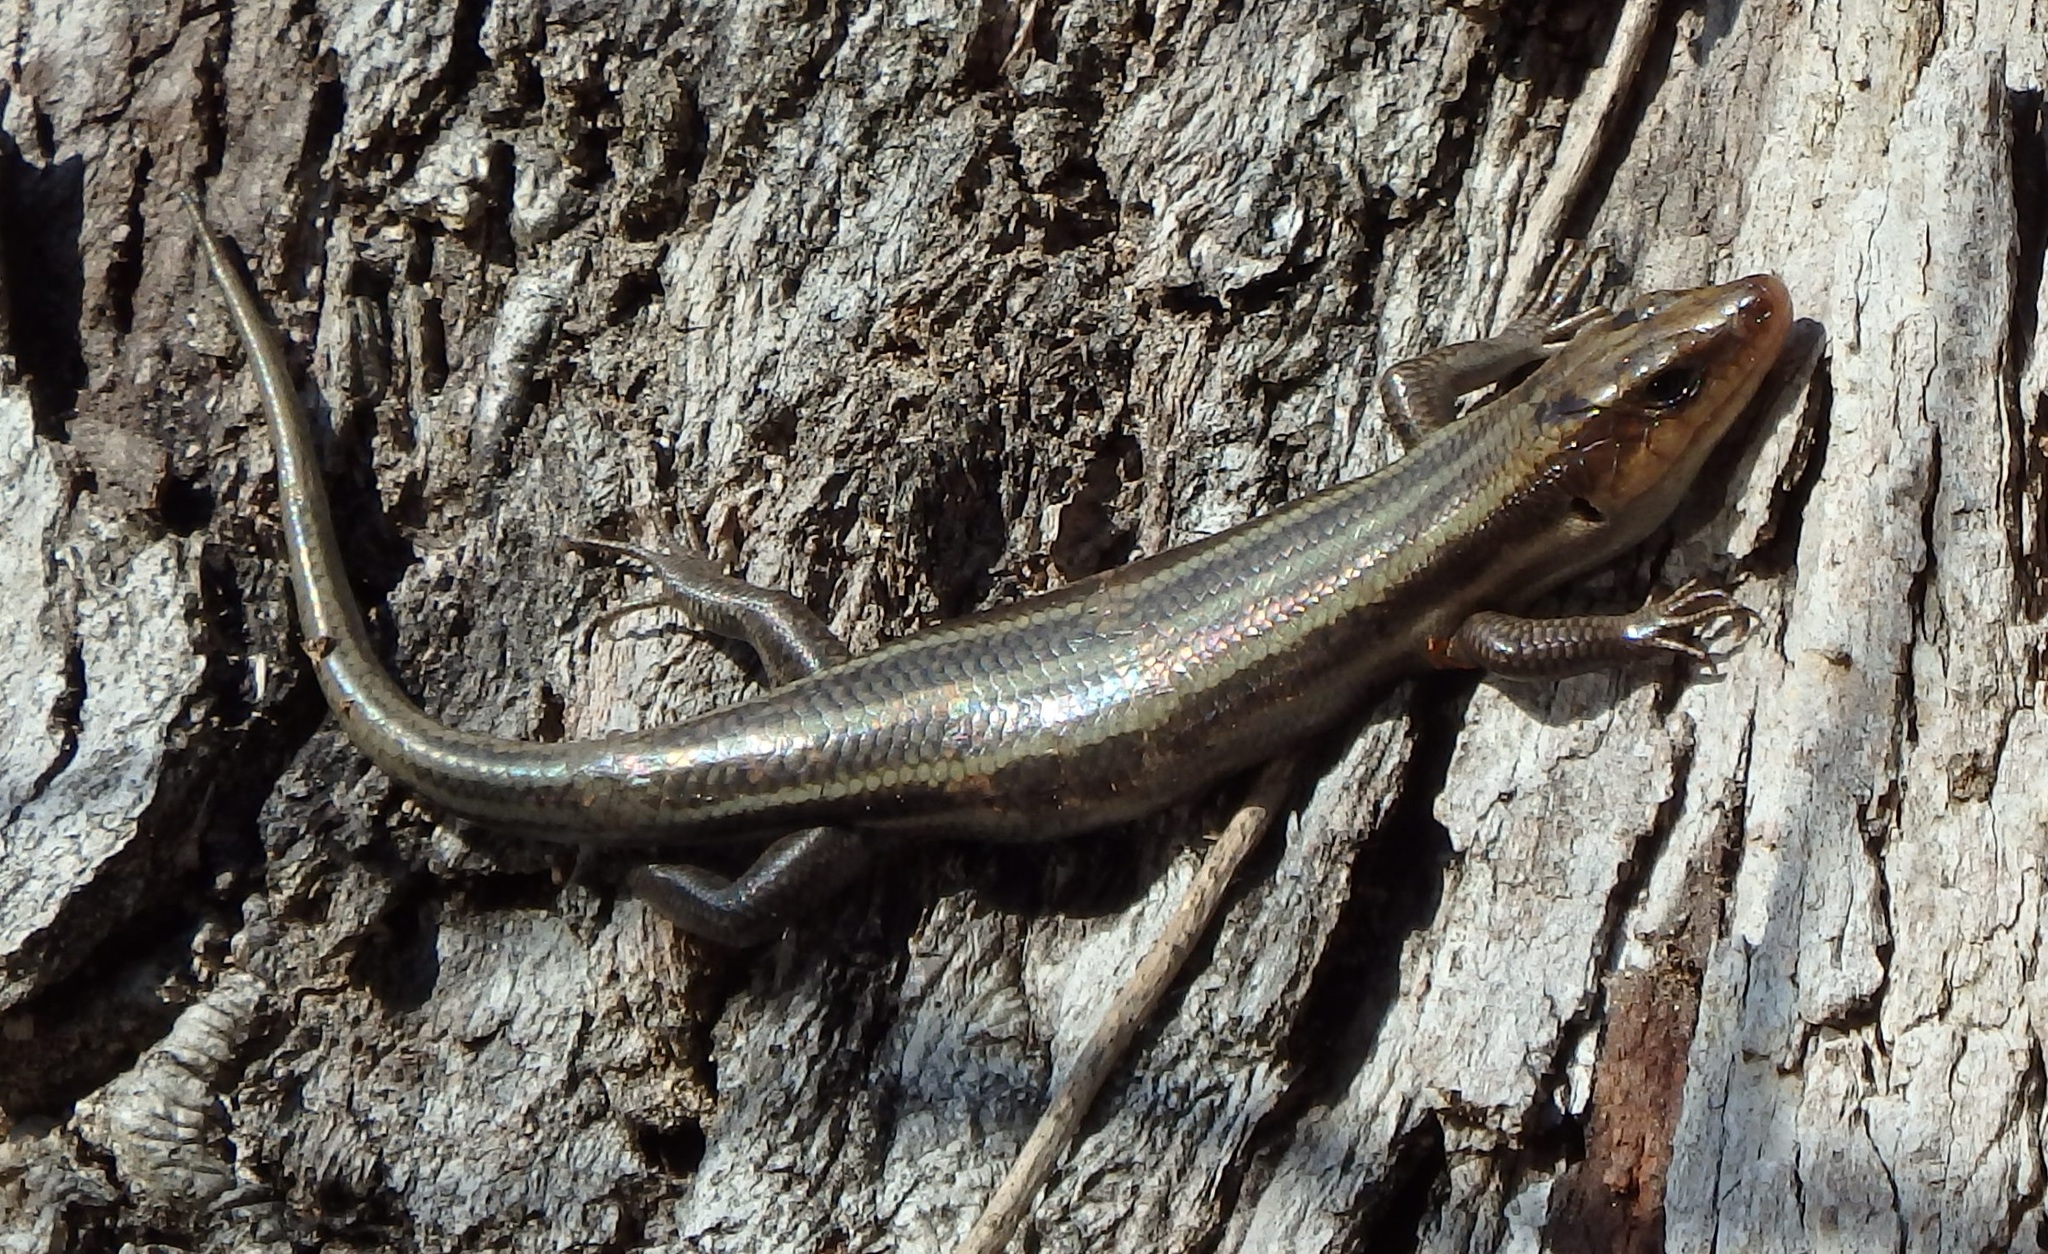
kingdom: Animalia
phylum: Chordata
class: Squamata
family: Scincidae
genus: Plestiodon
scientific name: Plestiodon fasciatus
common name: Five-lined skink
